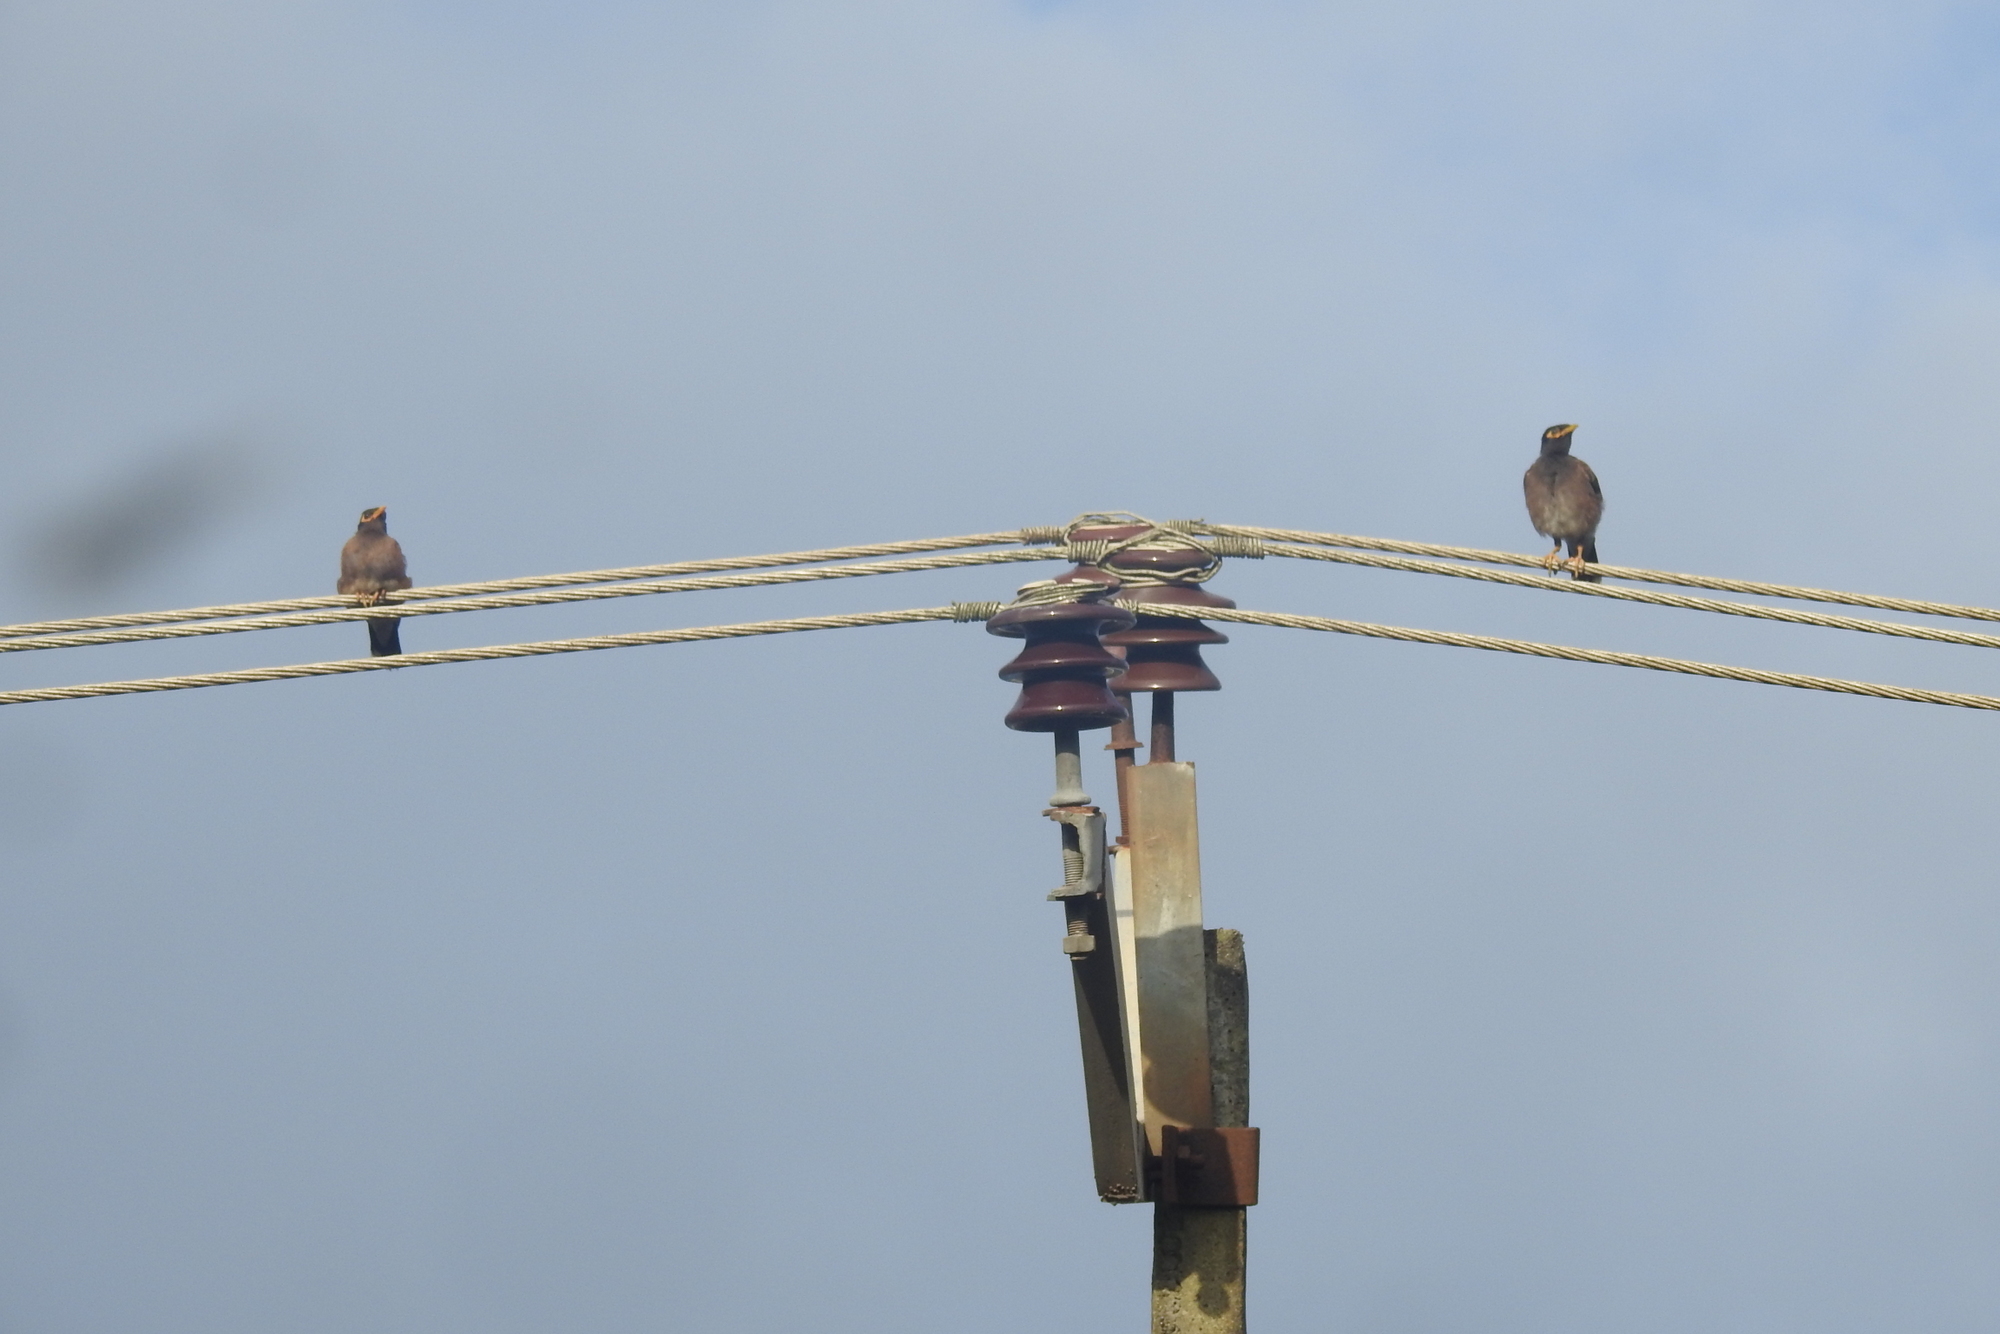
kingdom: Animalia
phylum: Chordata
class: Aves
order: Passeriformes
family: Sturnidae
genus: Acridotheres
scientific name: Acridotheres tristis
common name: Common myna
